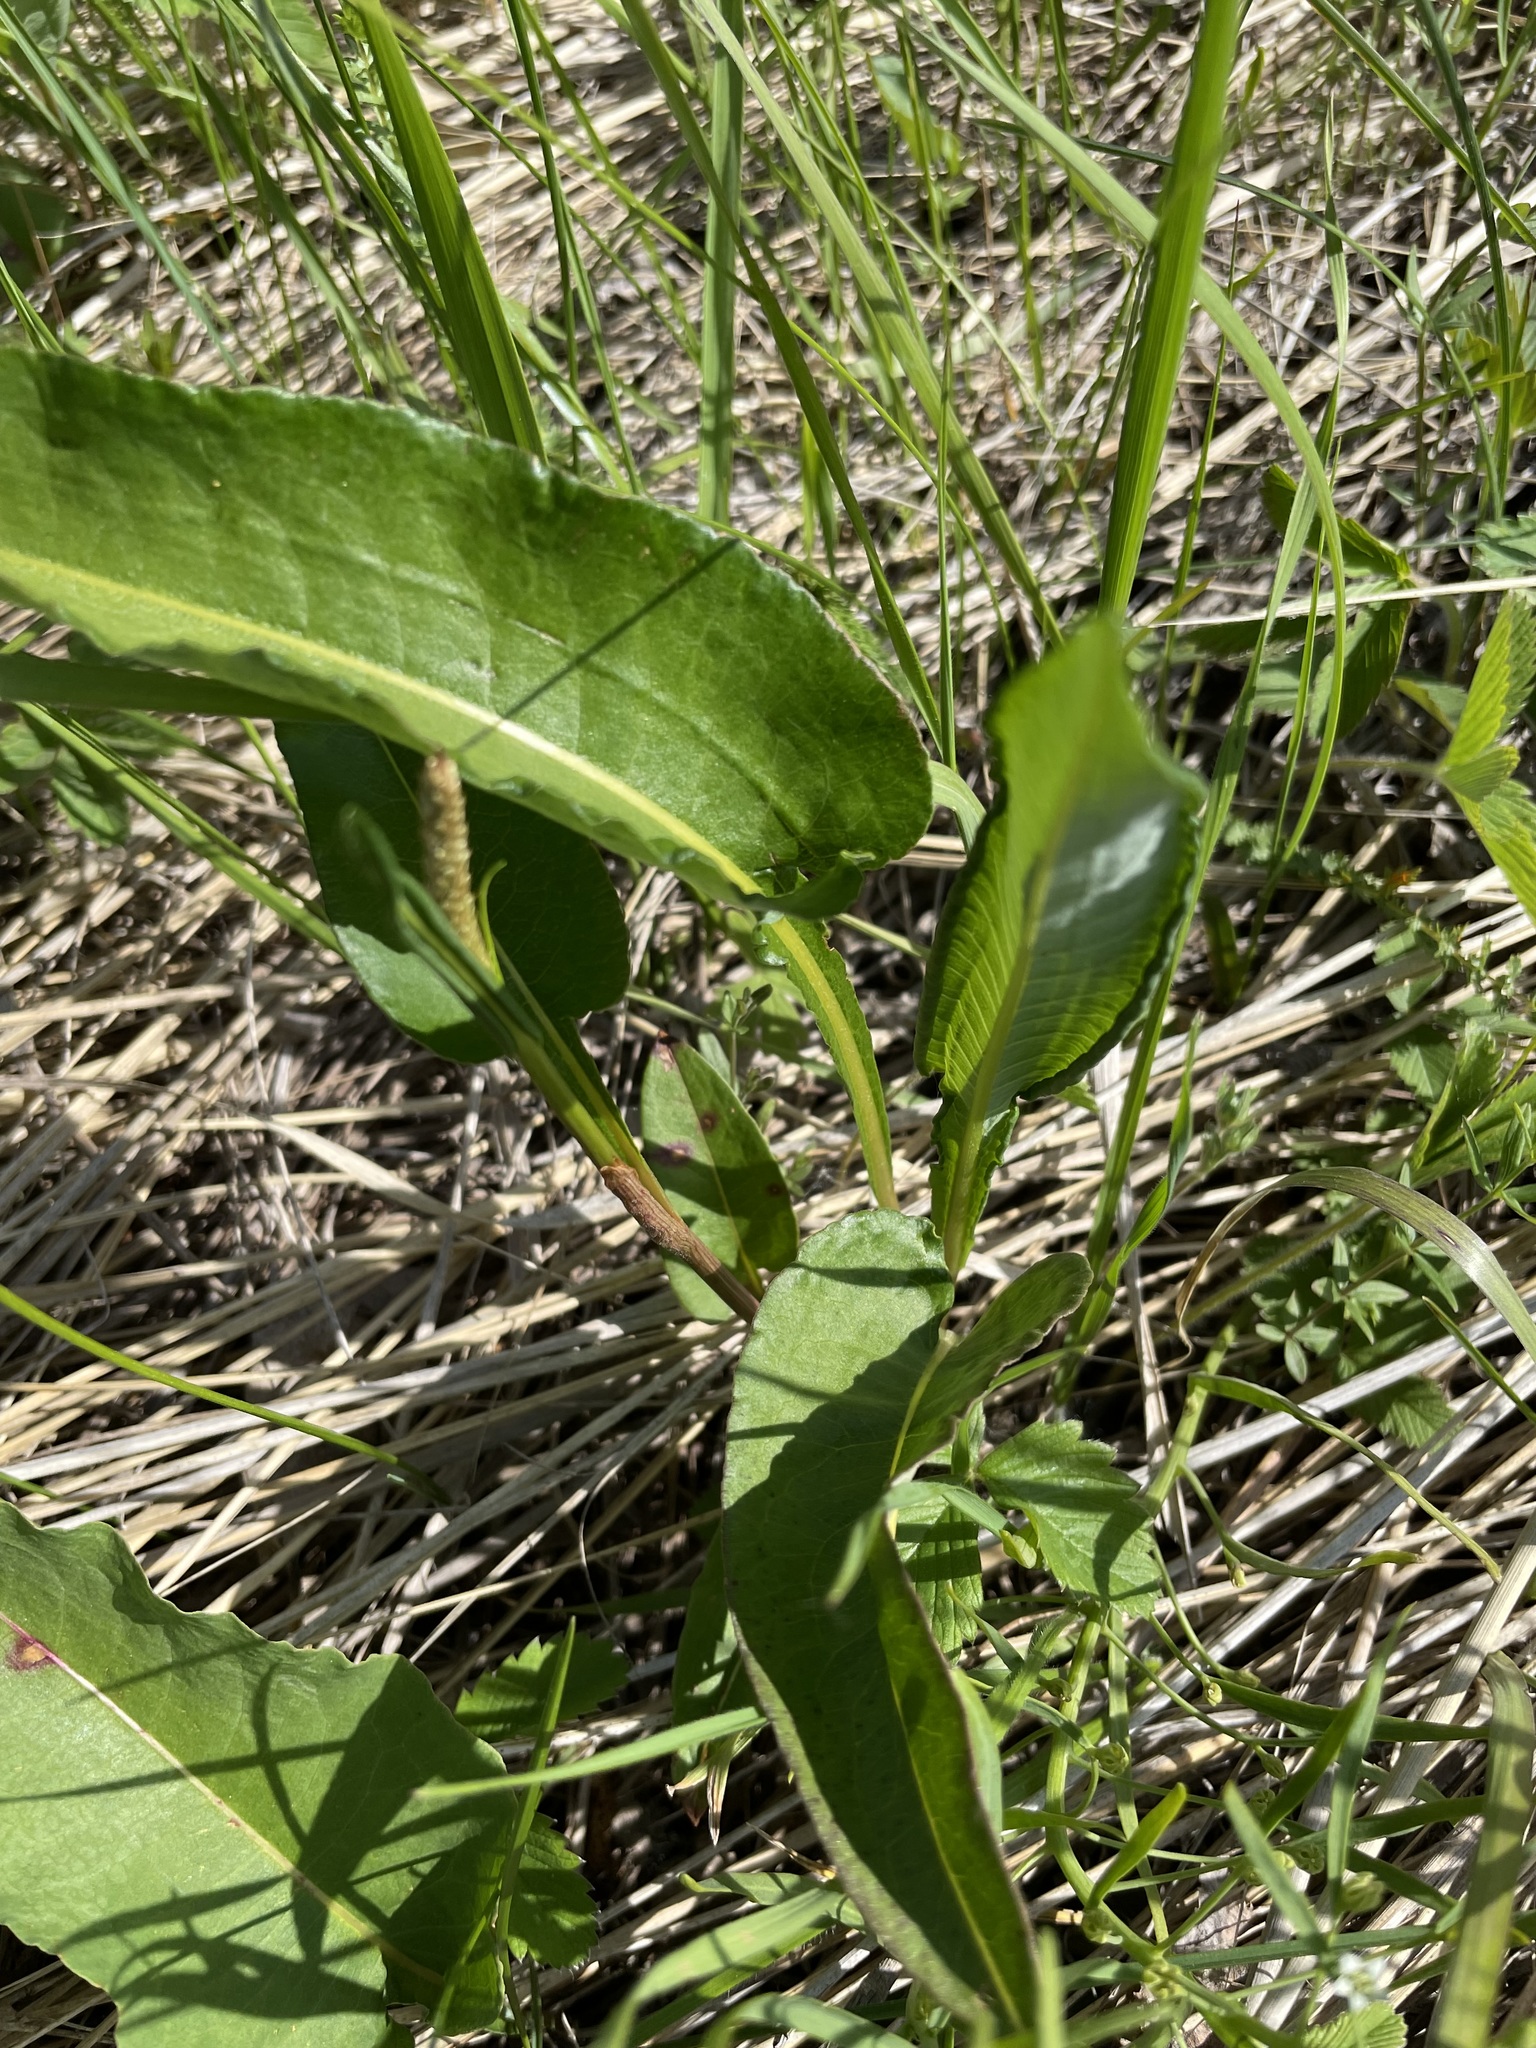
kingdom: Plantae
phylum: Tracheophyta
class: Magnoliopsida
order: Caryophyllales
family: Polygonaceae
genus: Bistorta
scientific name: Bistorta officinalis
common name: Common bistort
